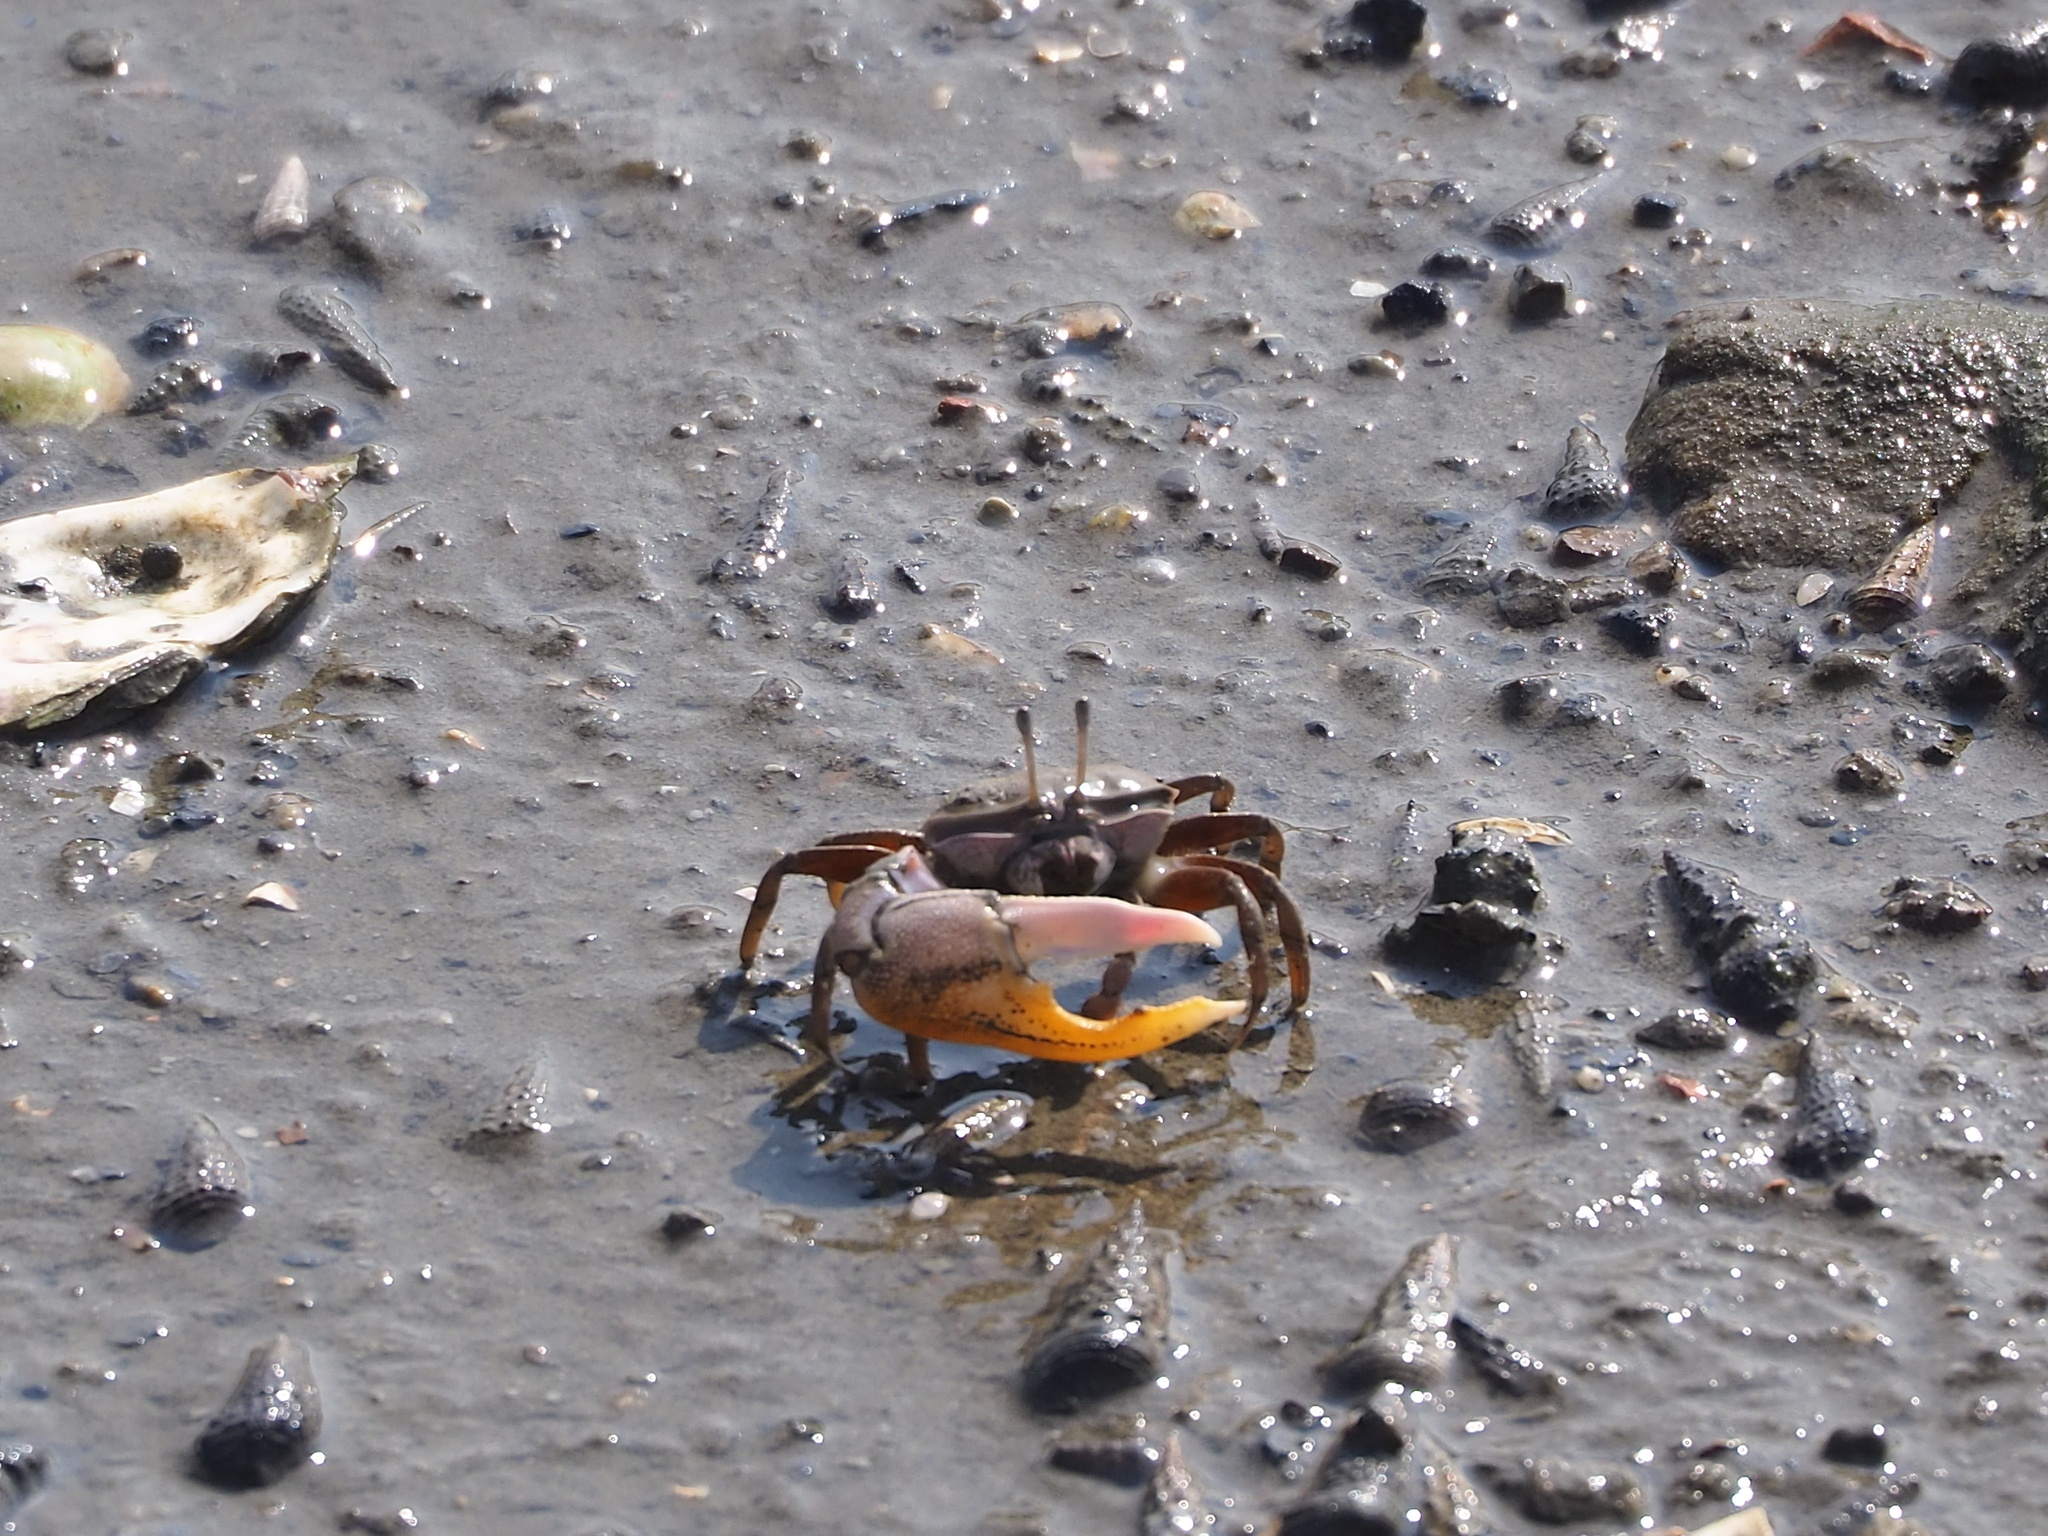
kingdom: Animalia
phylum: Arthropoda
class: Malacostraca
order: Decapoda
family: Ocypodidae
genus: Gelasimus
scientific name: Gelasimus borealis
